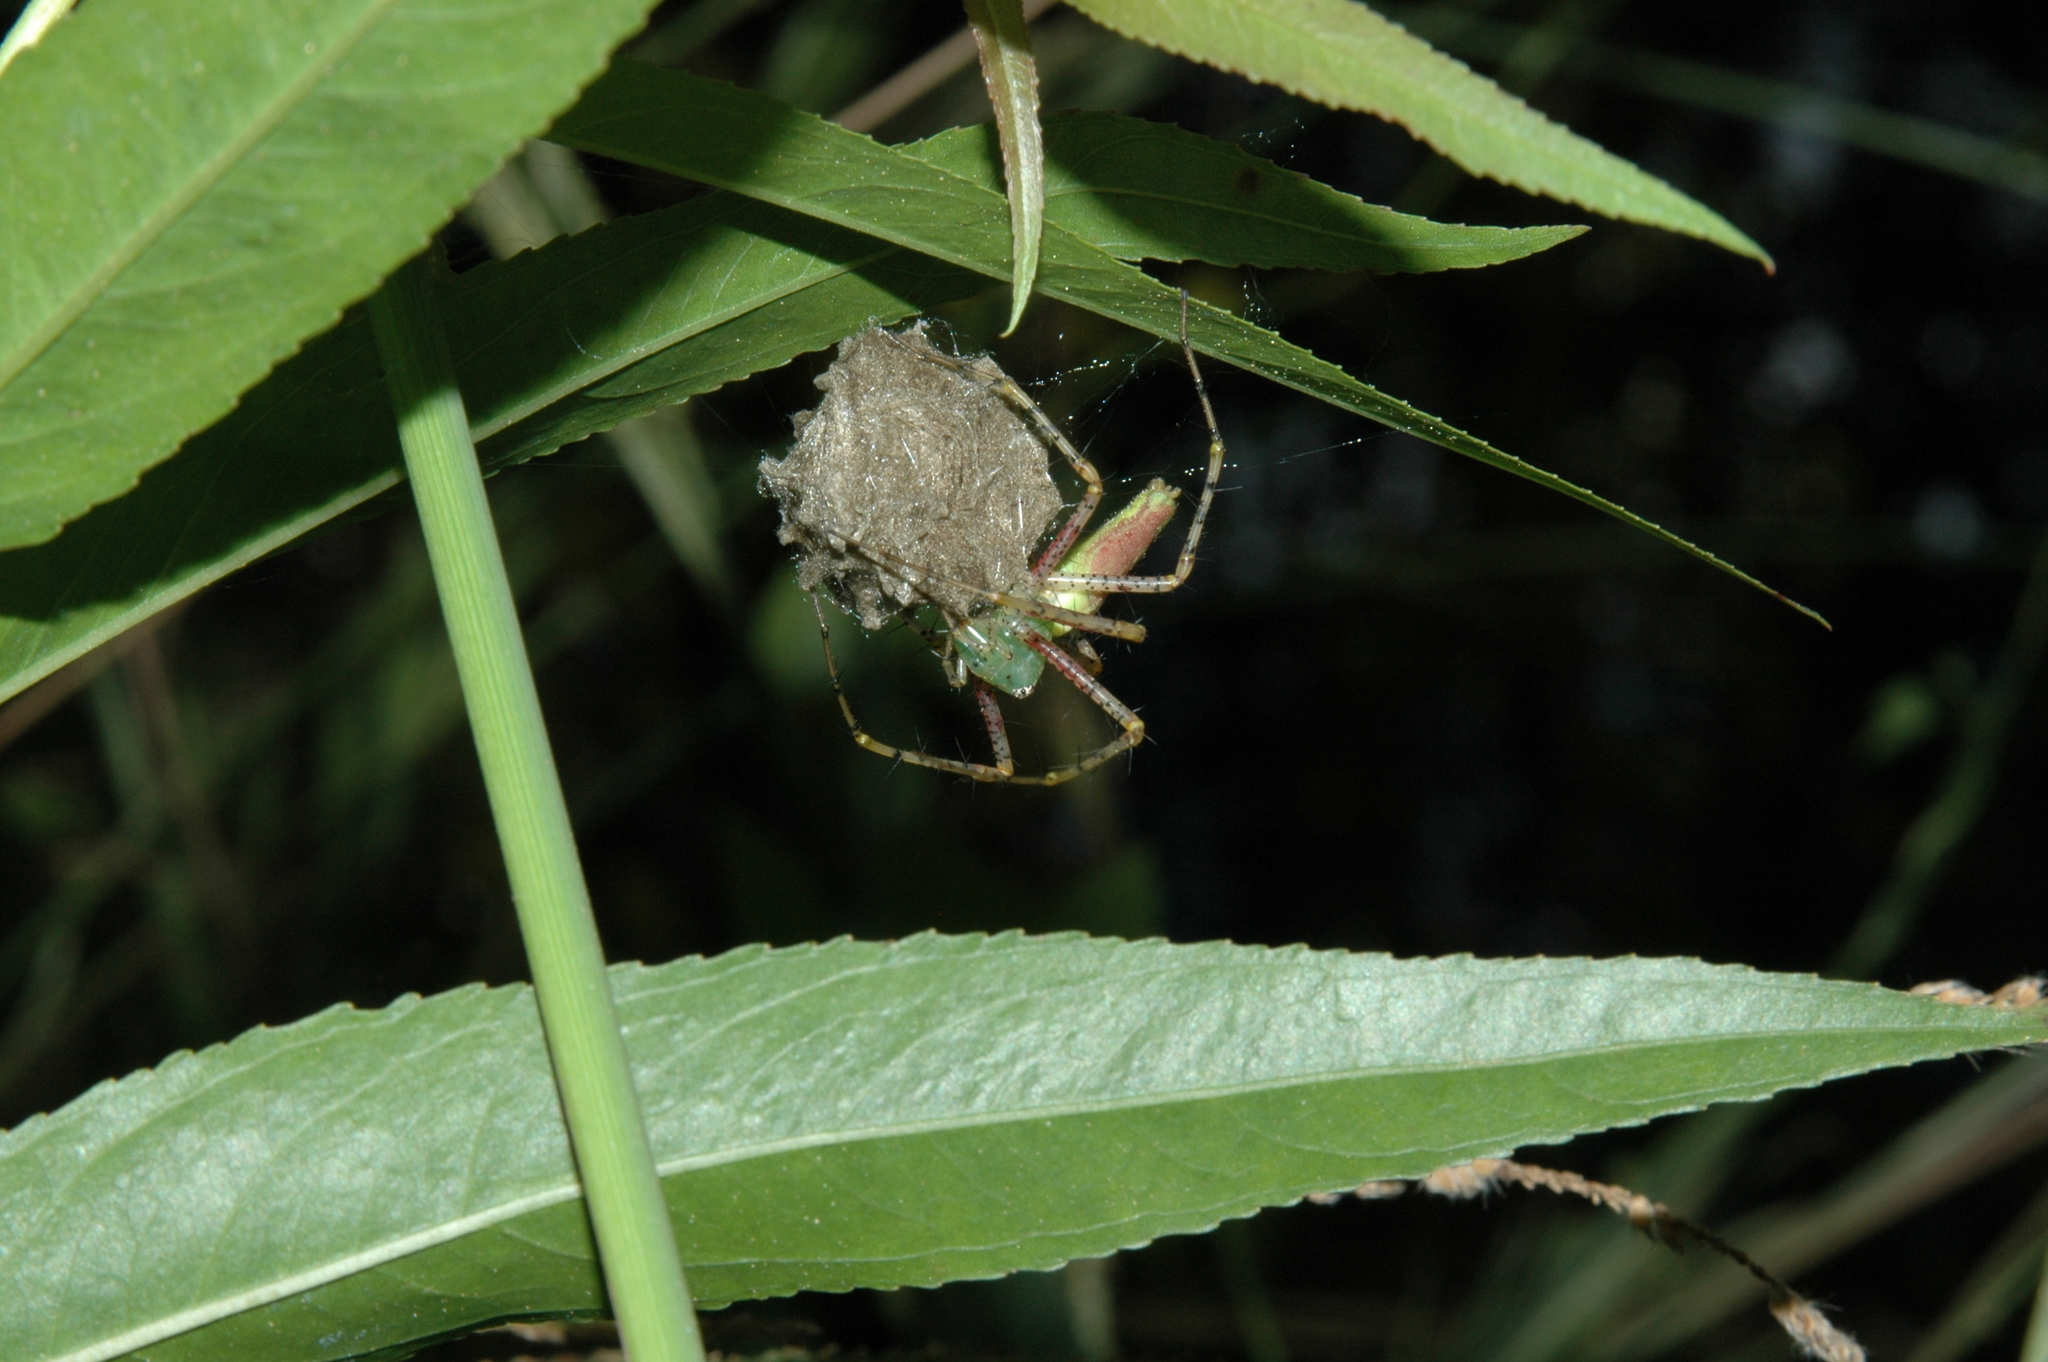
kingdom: Animalia
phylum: Arthropoda
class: Arachnida
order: Araneae
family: Oxyopidae
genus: Peucetia
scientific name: Peucetia viridans
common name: Lynx spiders
